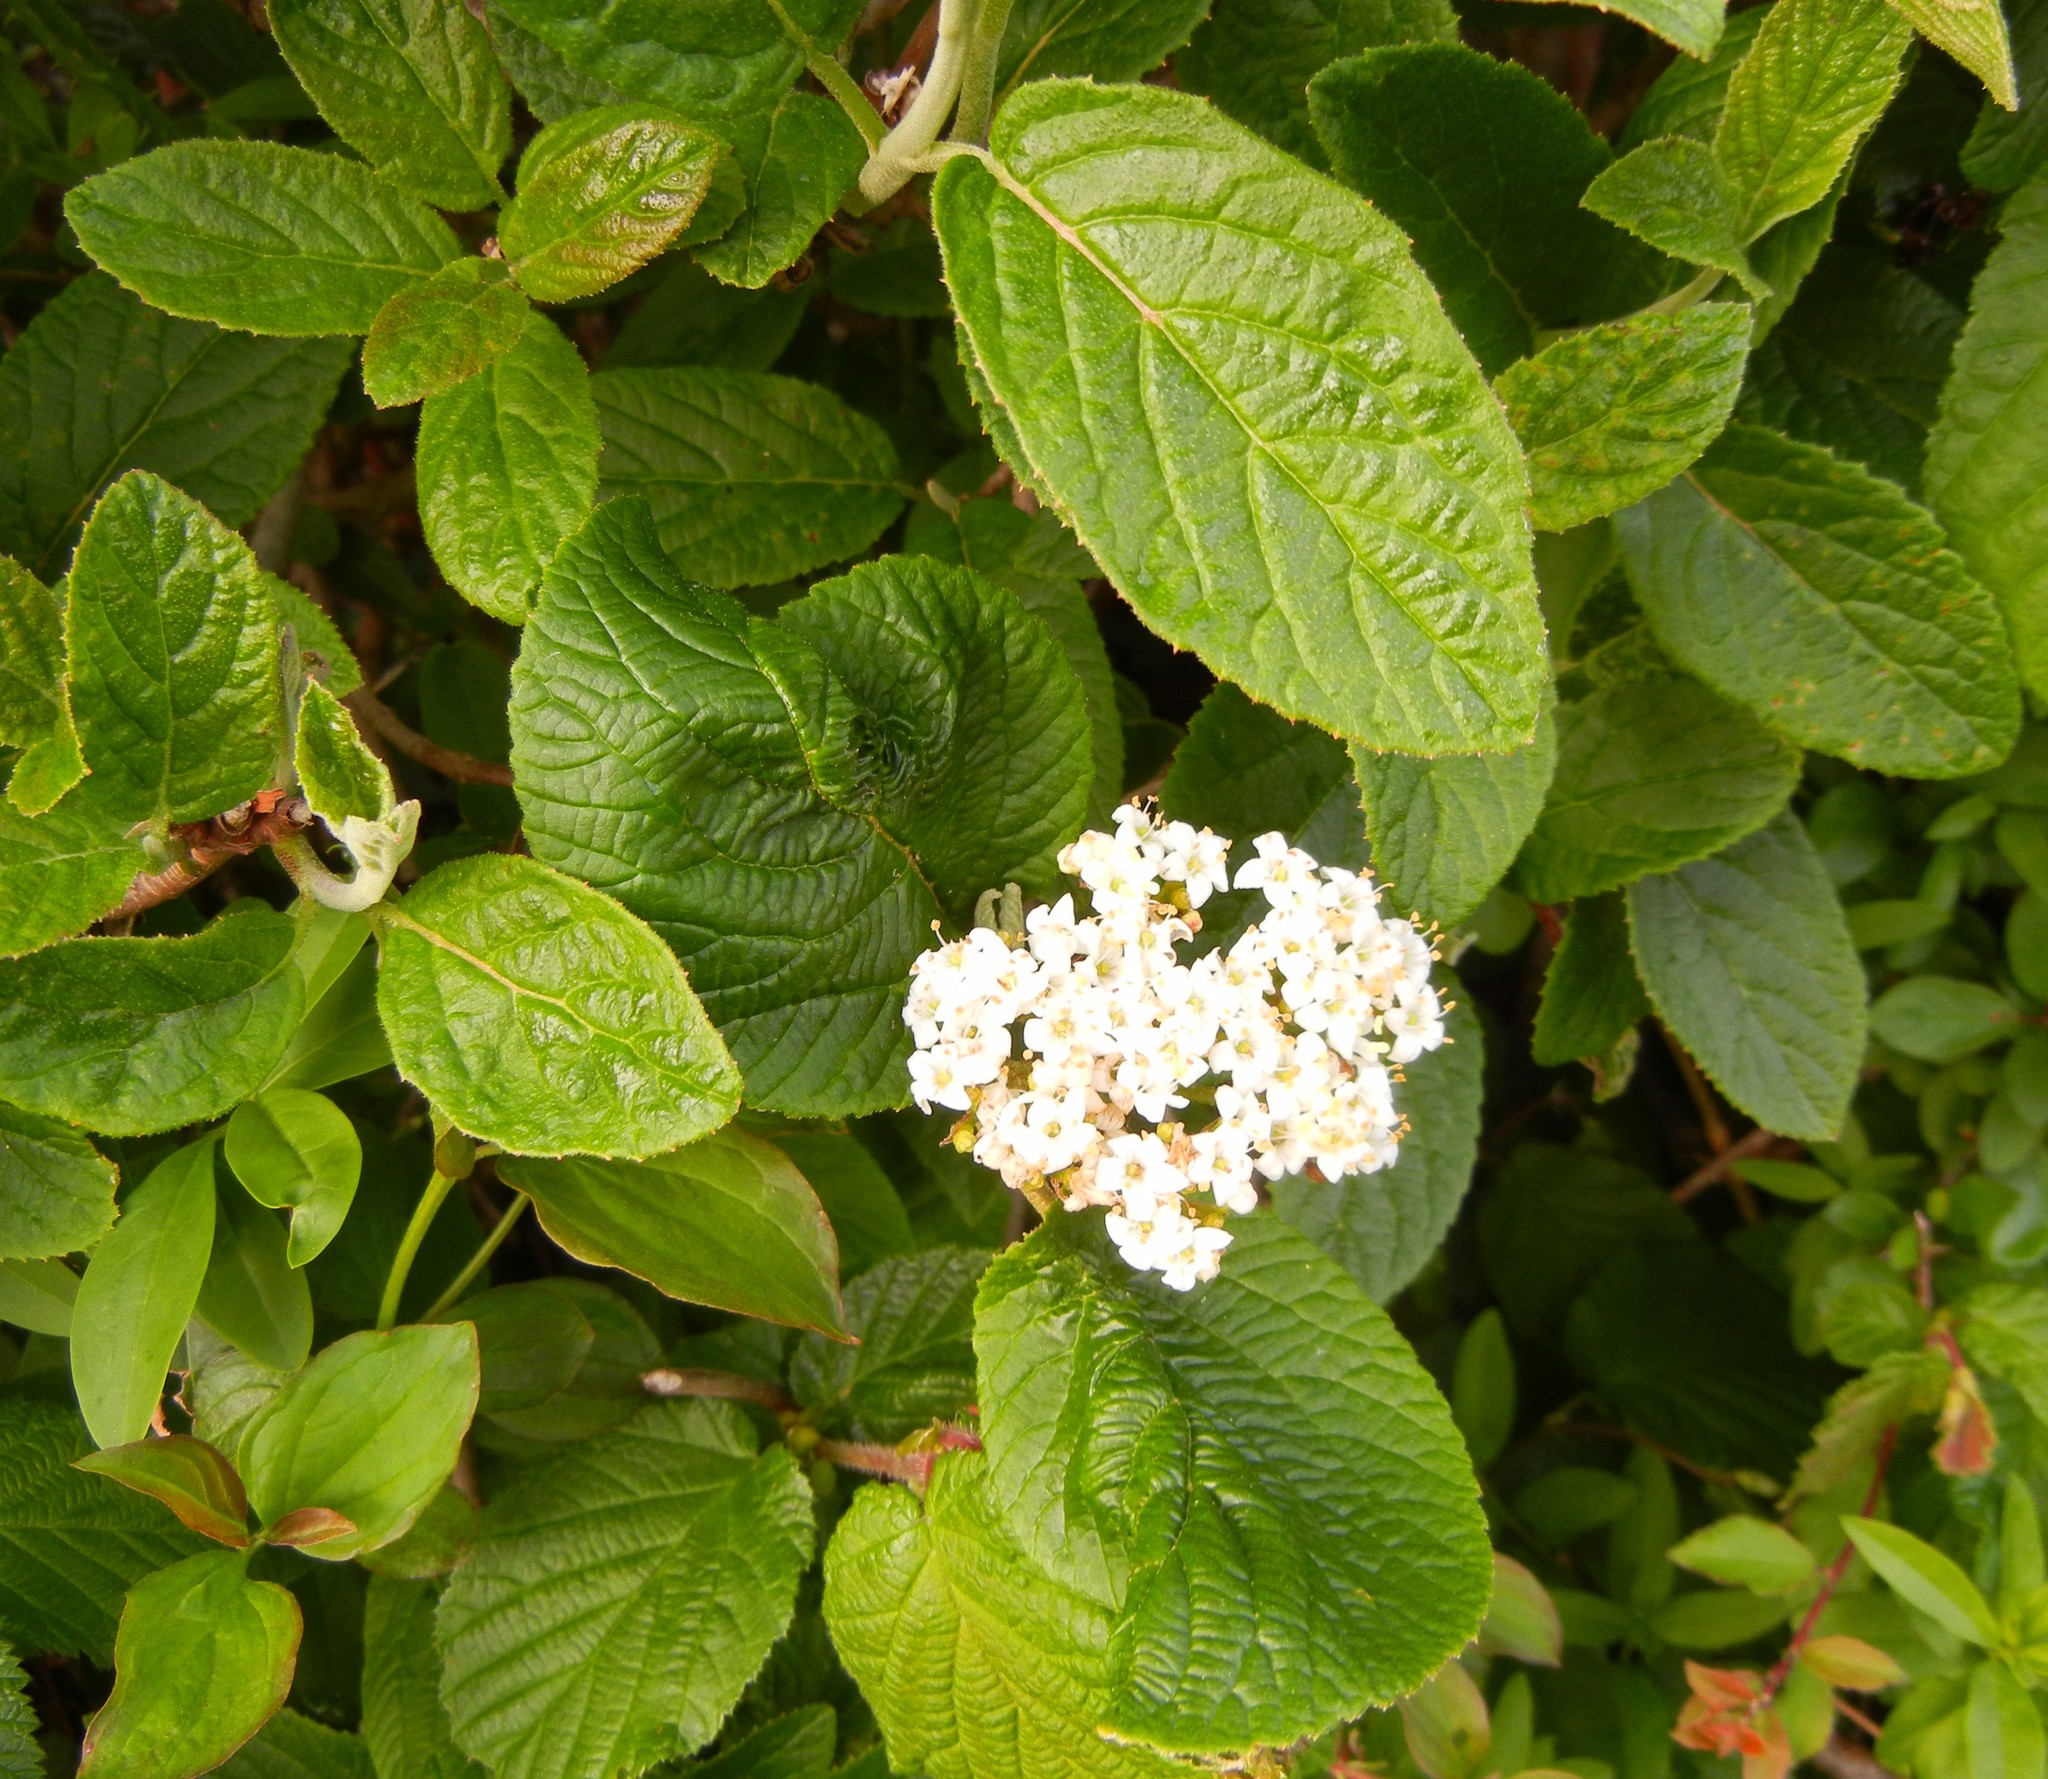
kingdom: Plantae
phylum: Tracheophyta
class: Magnoliopsida
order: Dipsacales
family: Viburnaceae
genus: Viburnum
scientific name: Viburnum lantana
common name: Wayfaring tree
